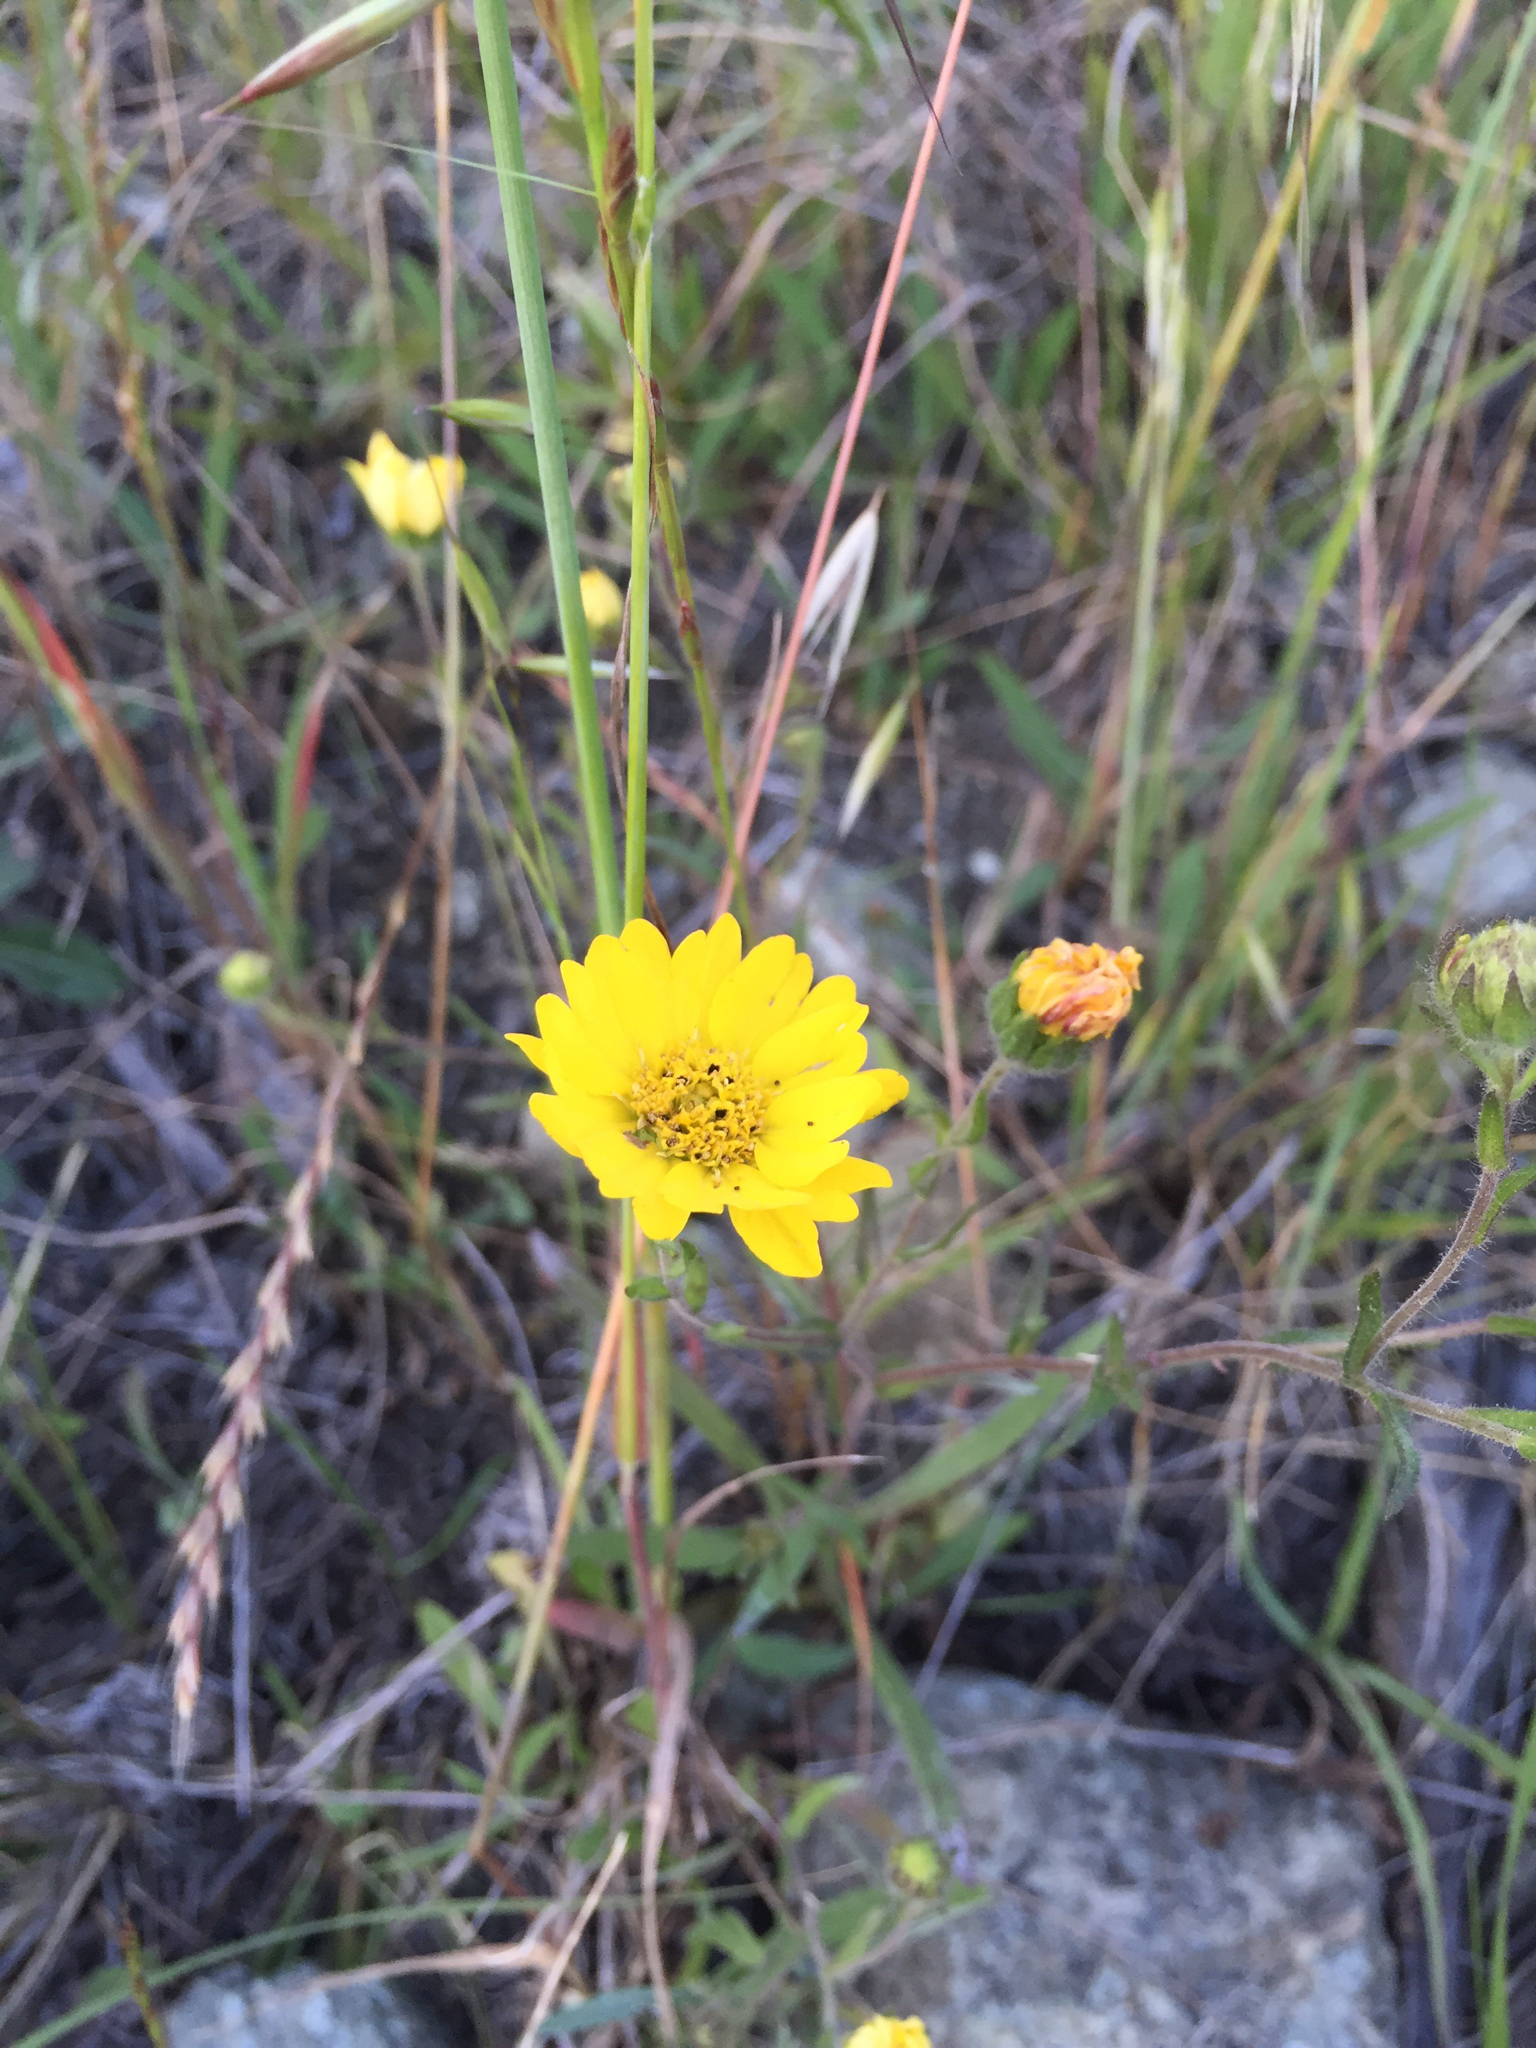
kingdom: Plantae
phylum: Tracheophyta
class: Magnoliopsida
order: Asterales
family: Asteraceae
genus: Hemizonia
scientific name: Hemizonia congesta
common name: Hayfield tarweed
